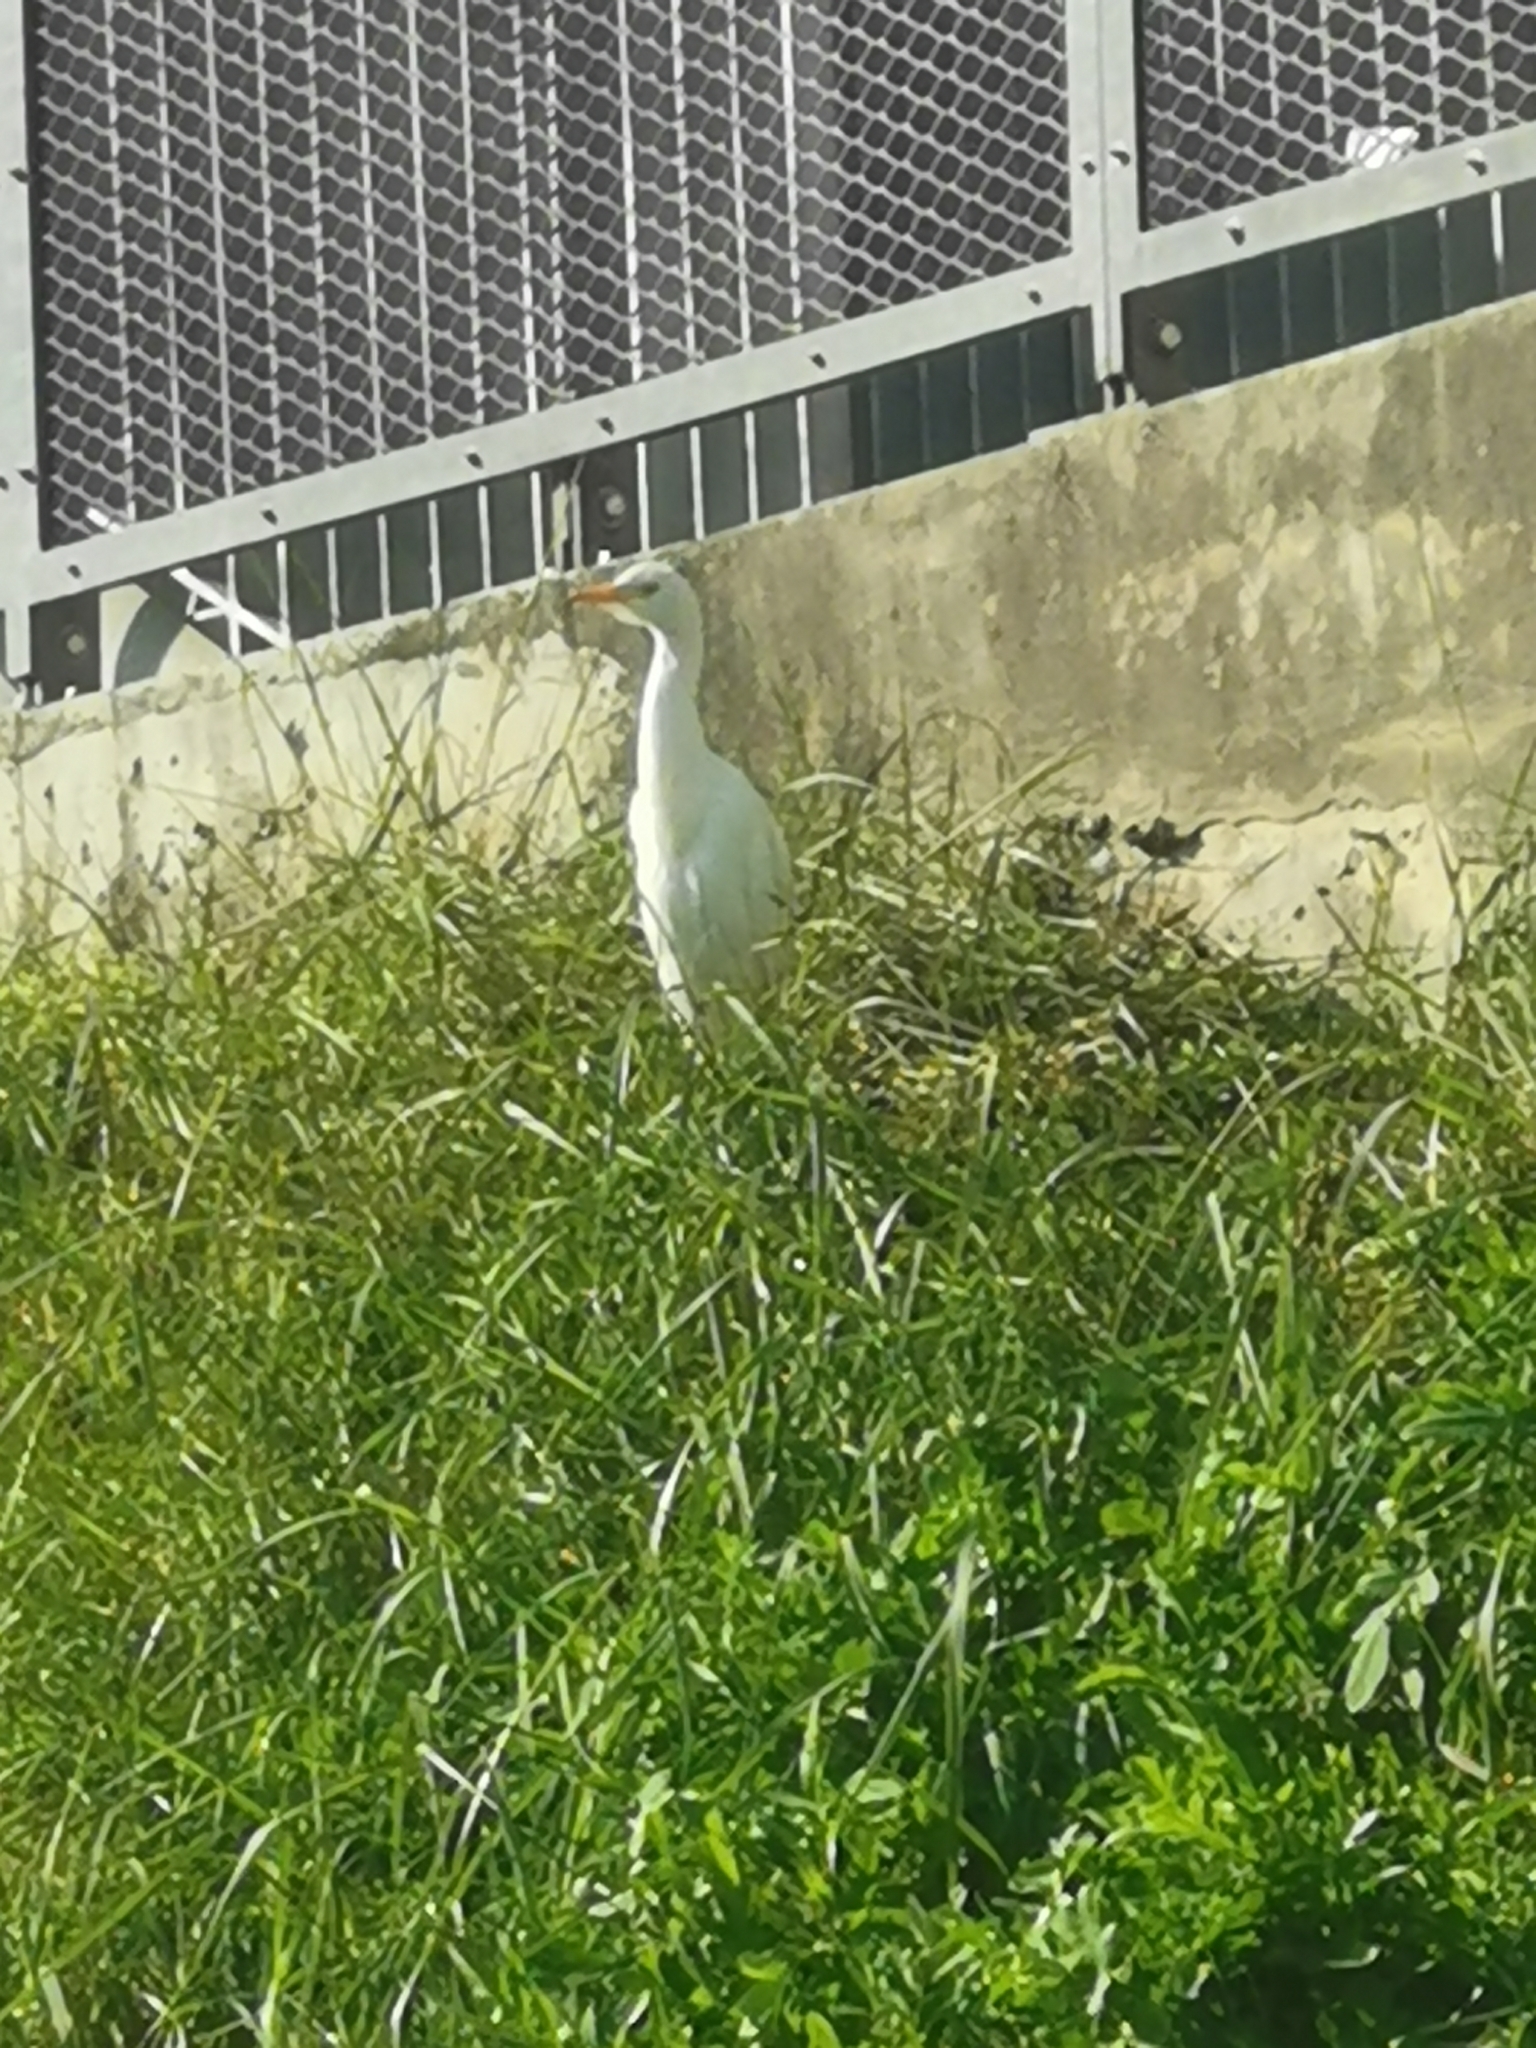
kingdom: Animalia
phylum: Chordata
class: Aves
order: Pelecaniformes
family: Ardeidae
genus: Bubulcus
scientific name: Bubulcus ibis
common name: Cattle egret
